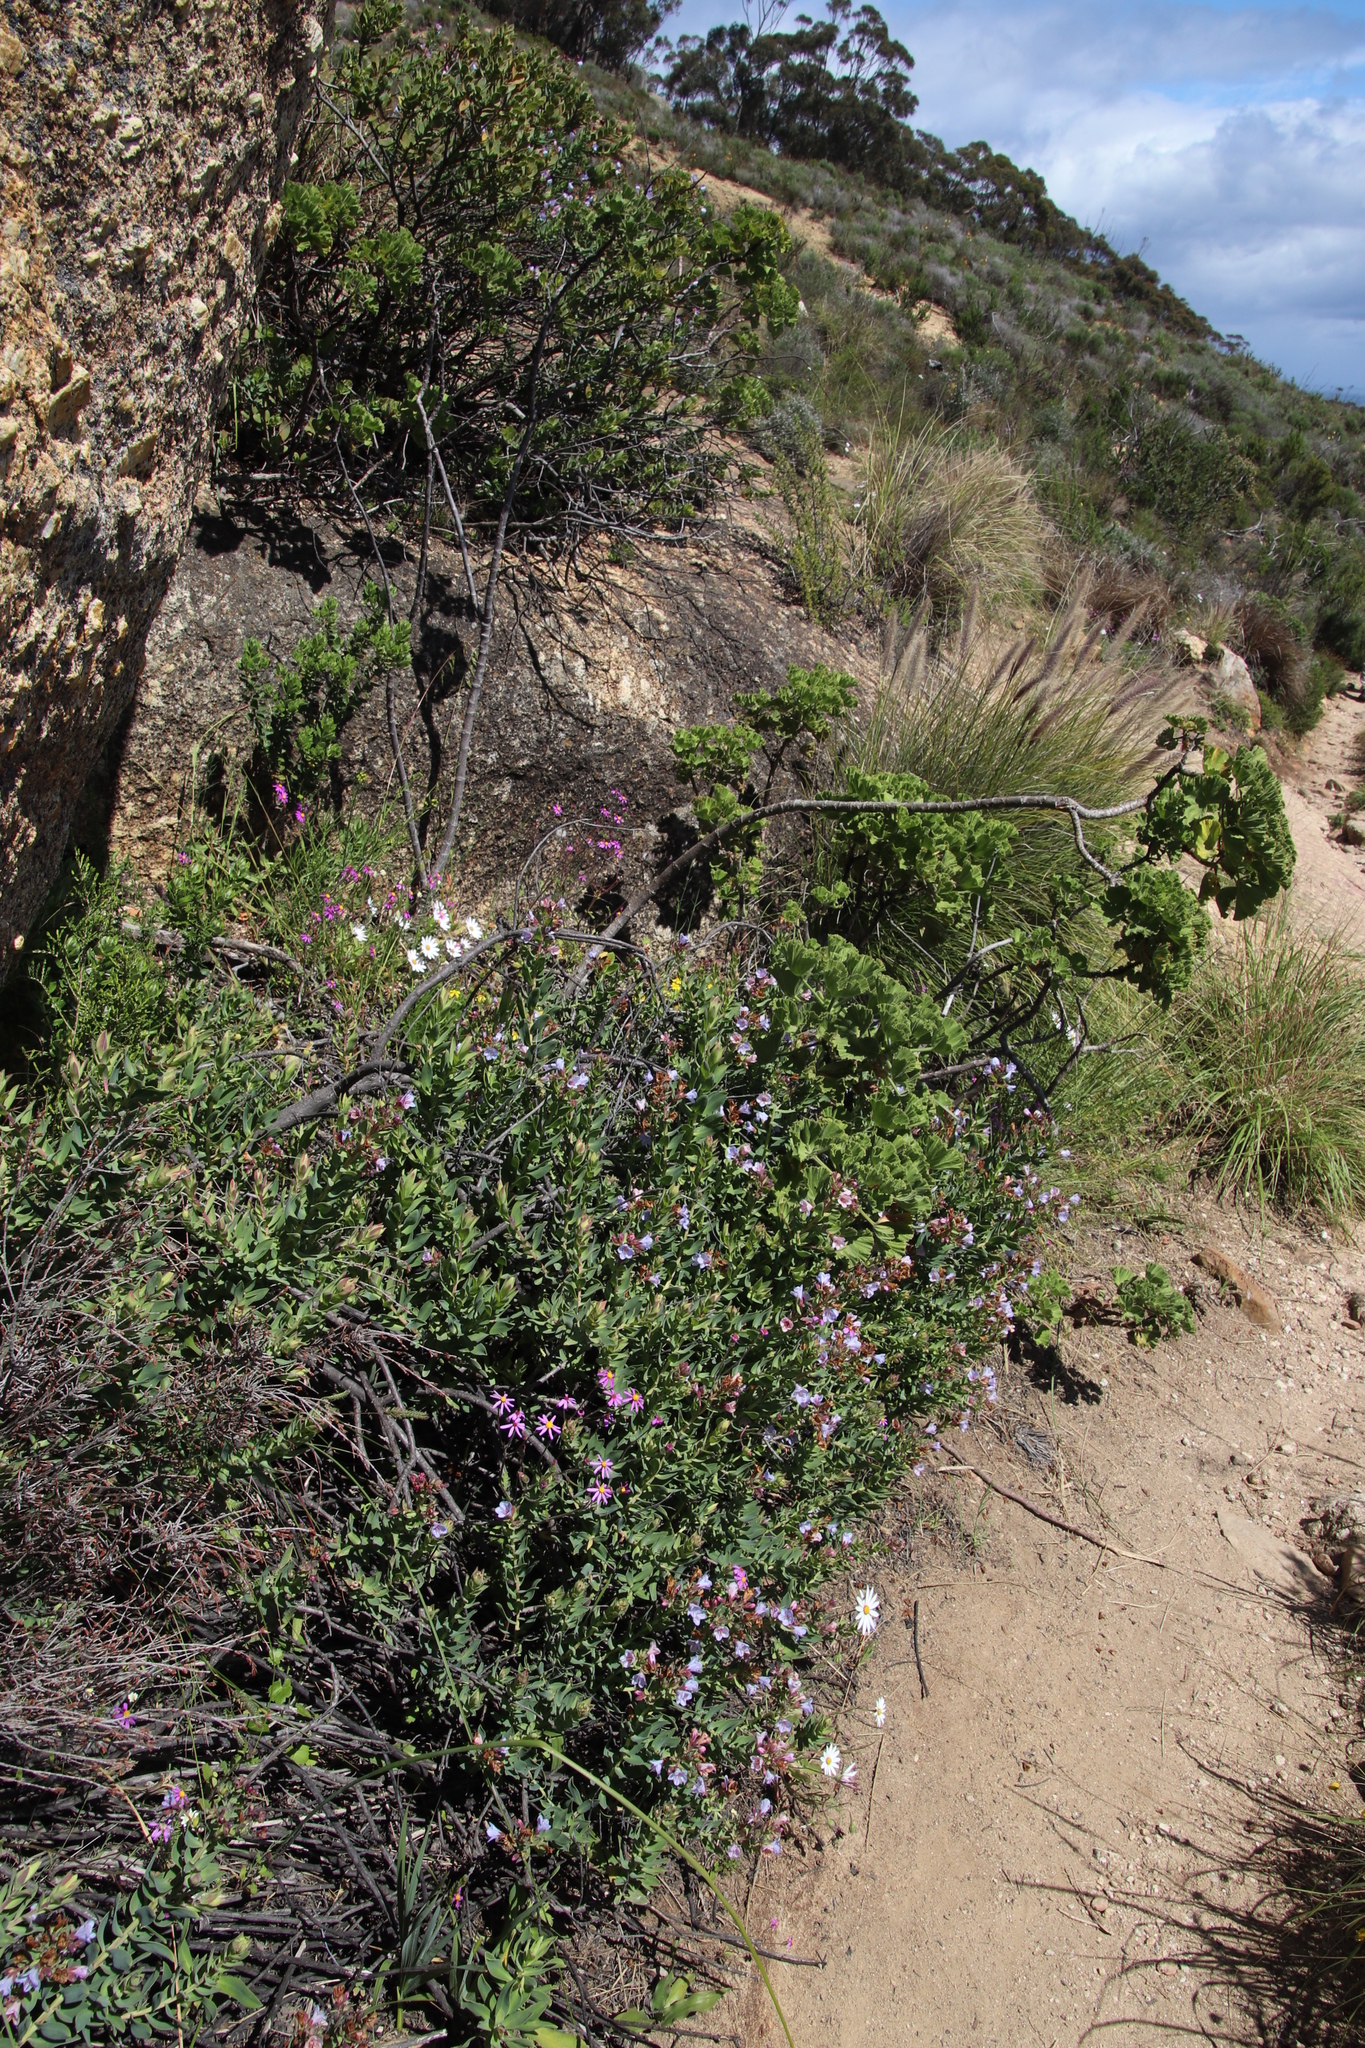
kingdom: Plantae
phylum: Tracheophyta
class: Magnoliopsida
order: Boraginales
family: Boraginaceae
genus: Lobostemon
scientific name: Lobostemon glaucophyllus
